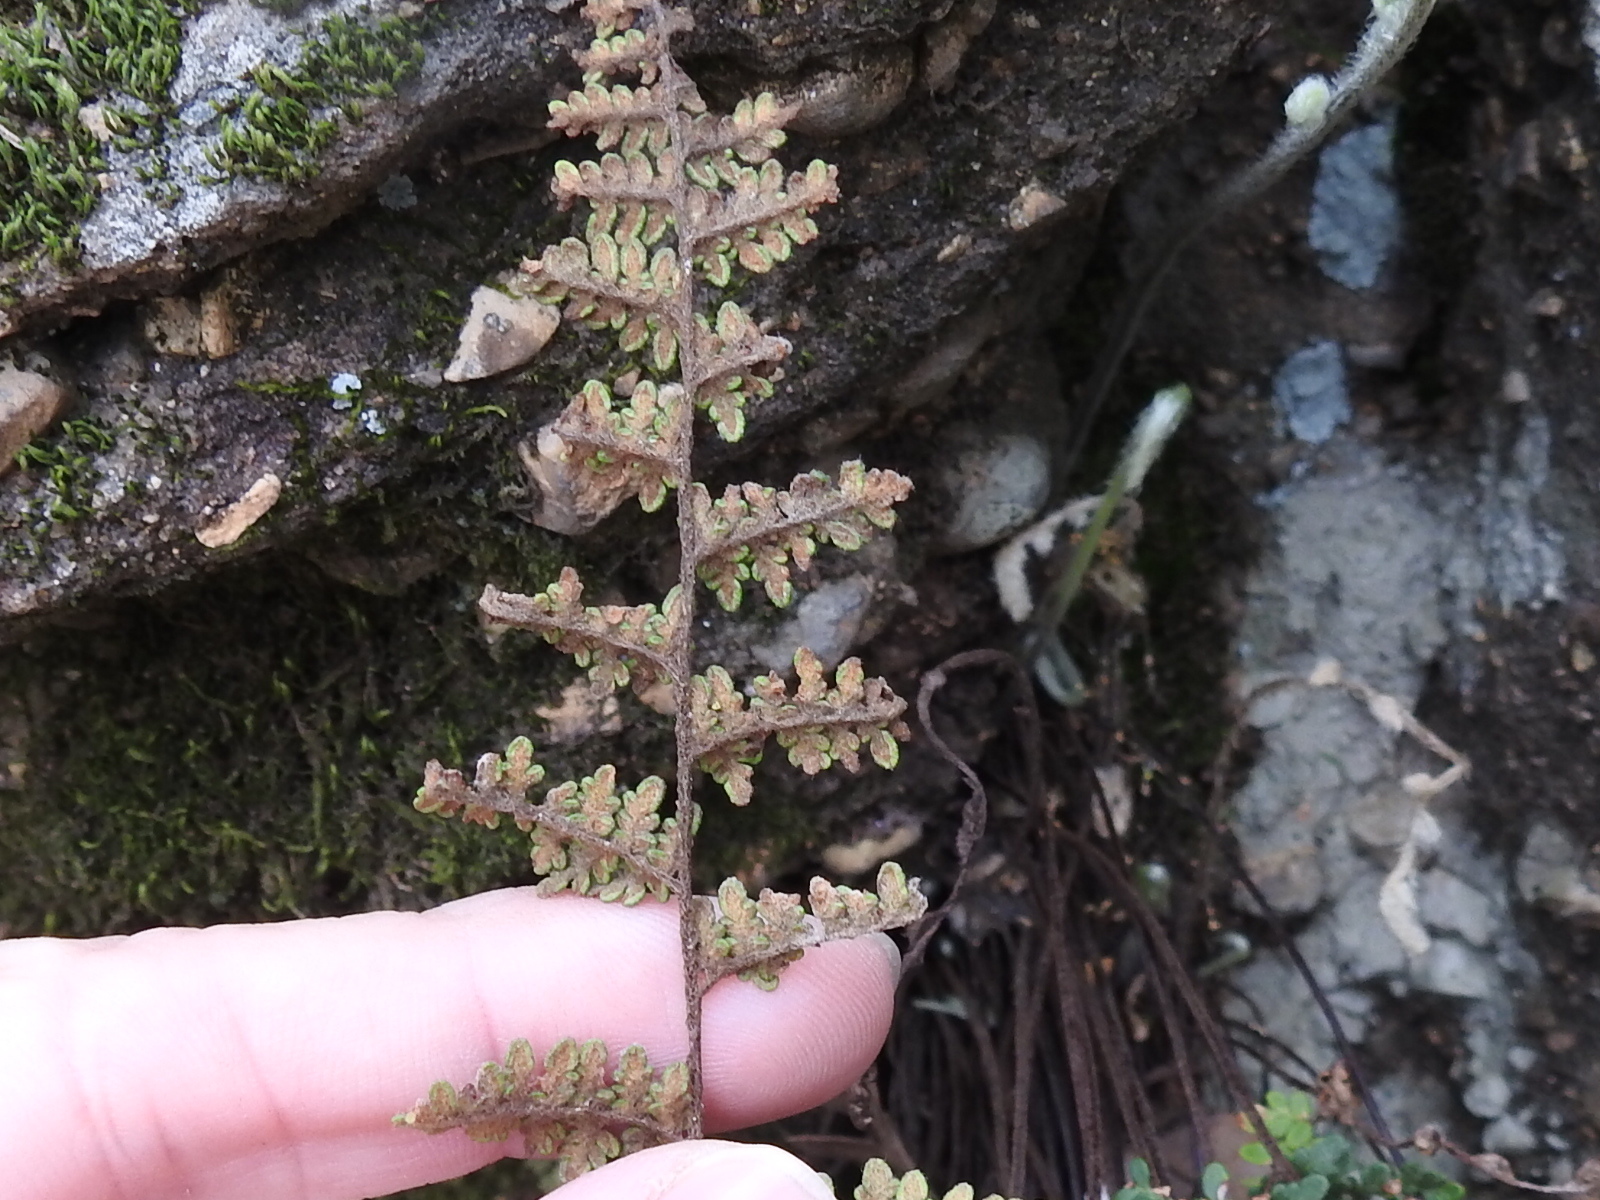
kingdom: Plantae
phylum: Tracheophyta
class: Polypodiopsida
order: Polypodiales
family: Pteridaceae
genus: Myriopteris
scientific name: Myriopteris tomentosa
